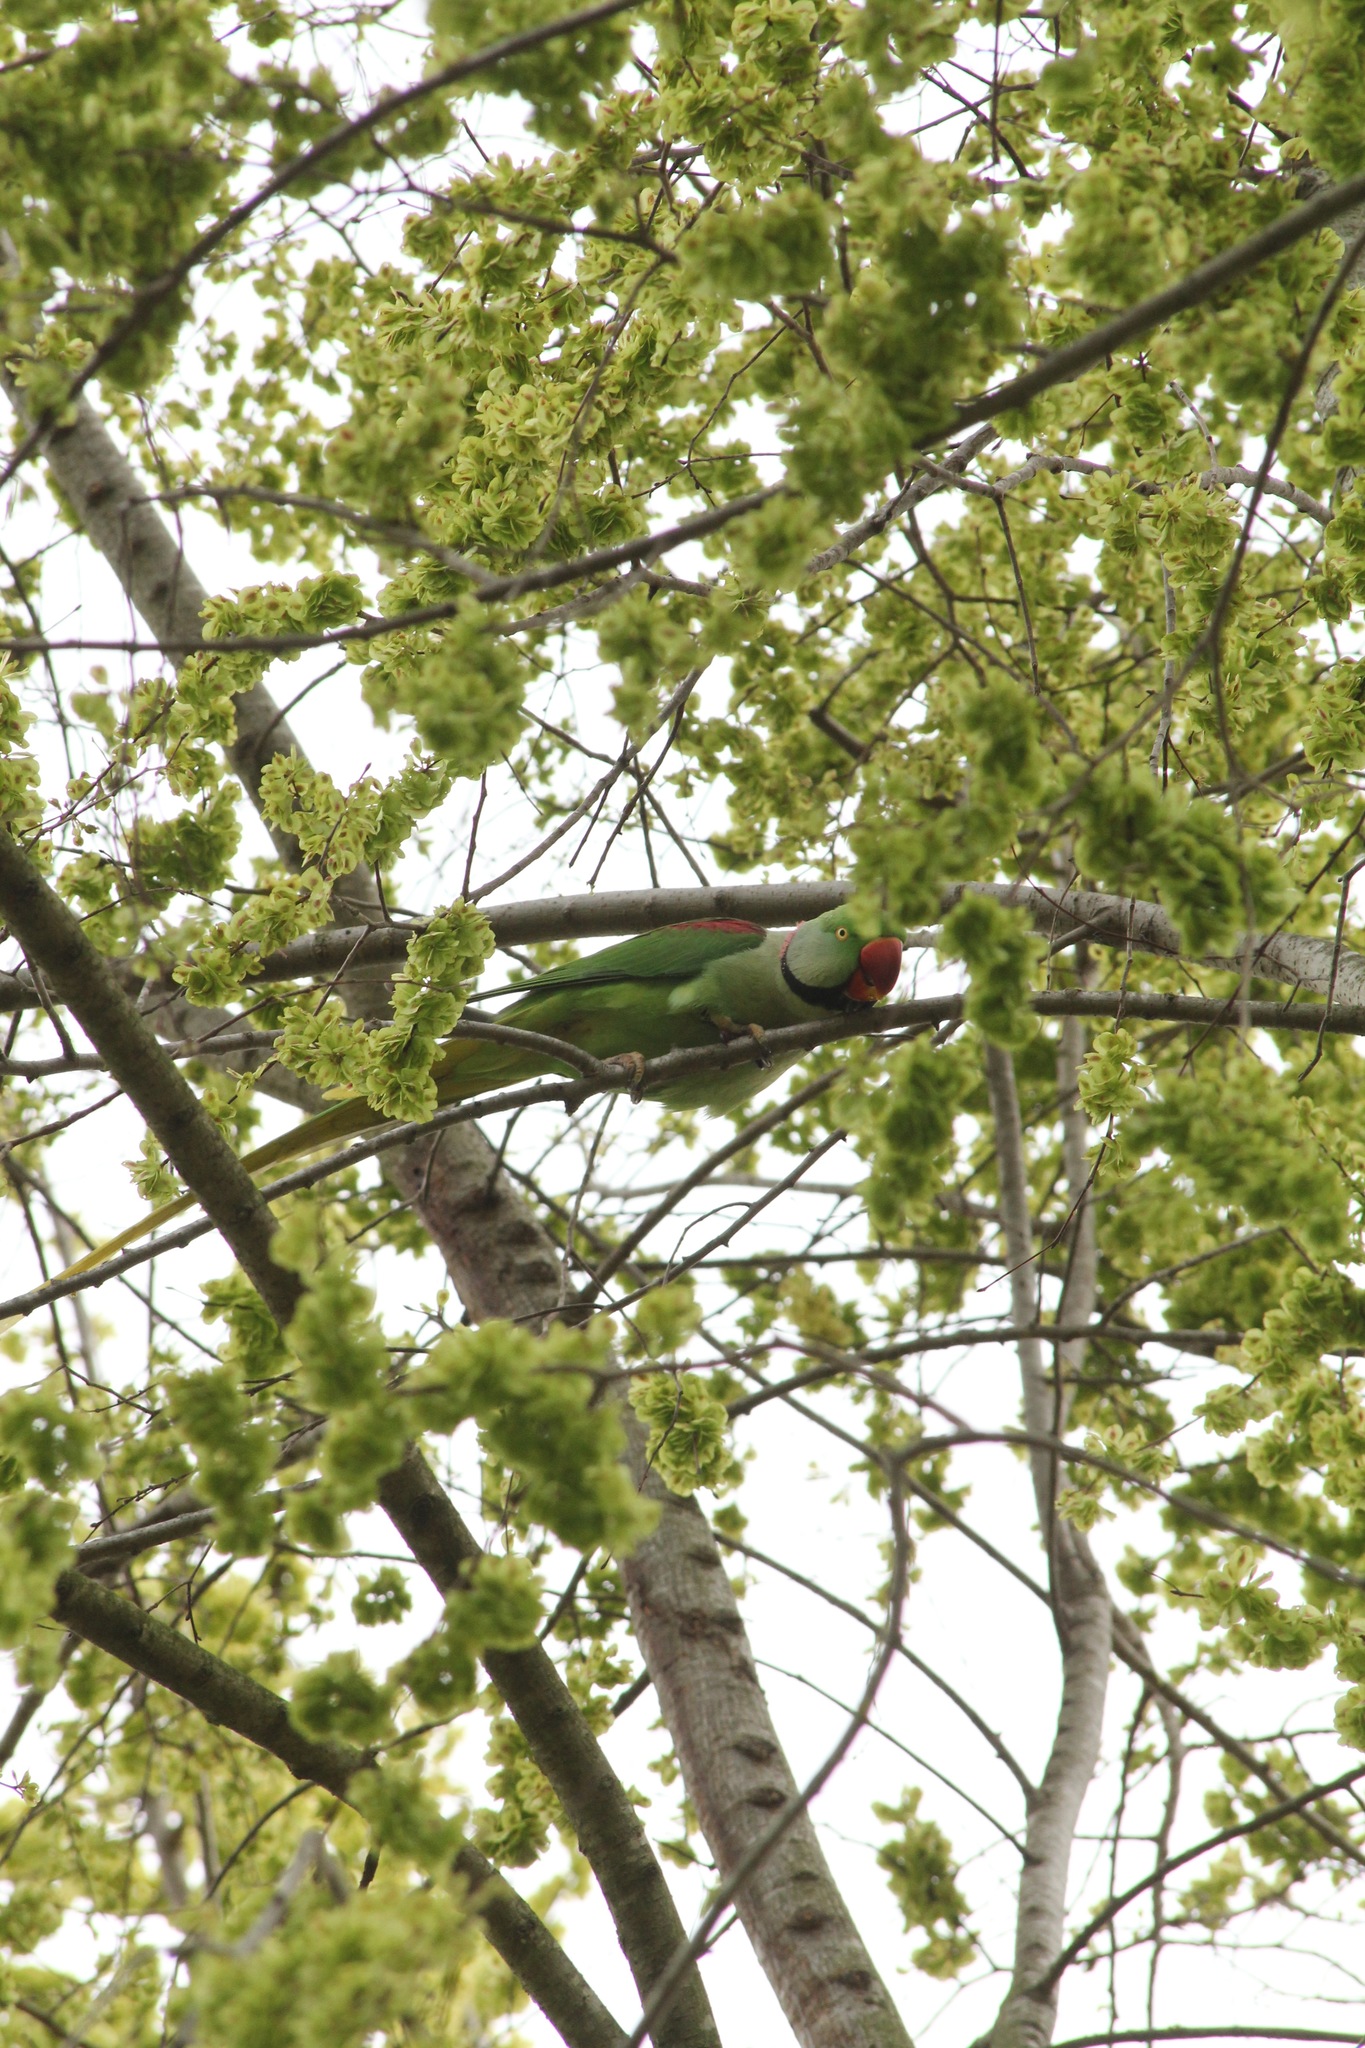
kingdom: Animalia
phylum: Chordata
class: Aves
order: Psittaciformes
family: Psittacidae
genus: Psittacula
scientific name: Psittacula eupatria
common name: Alexandrine parakeet
